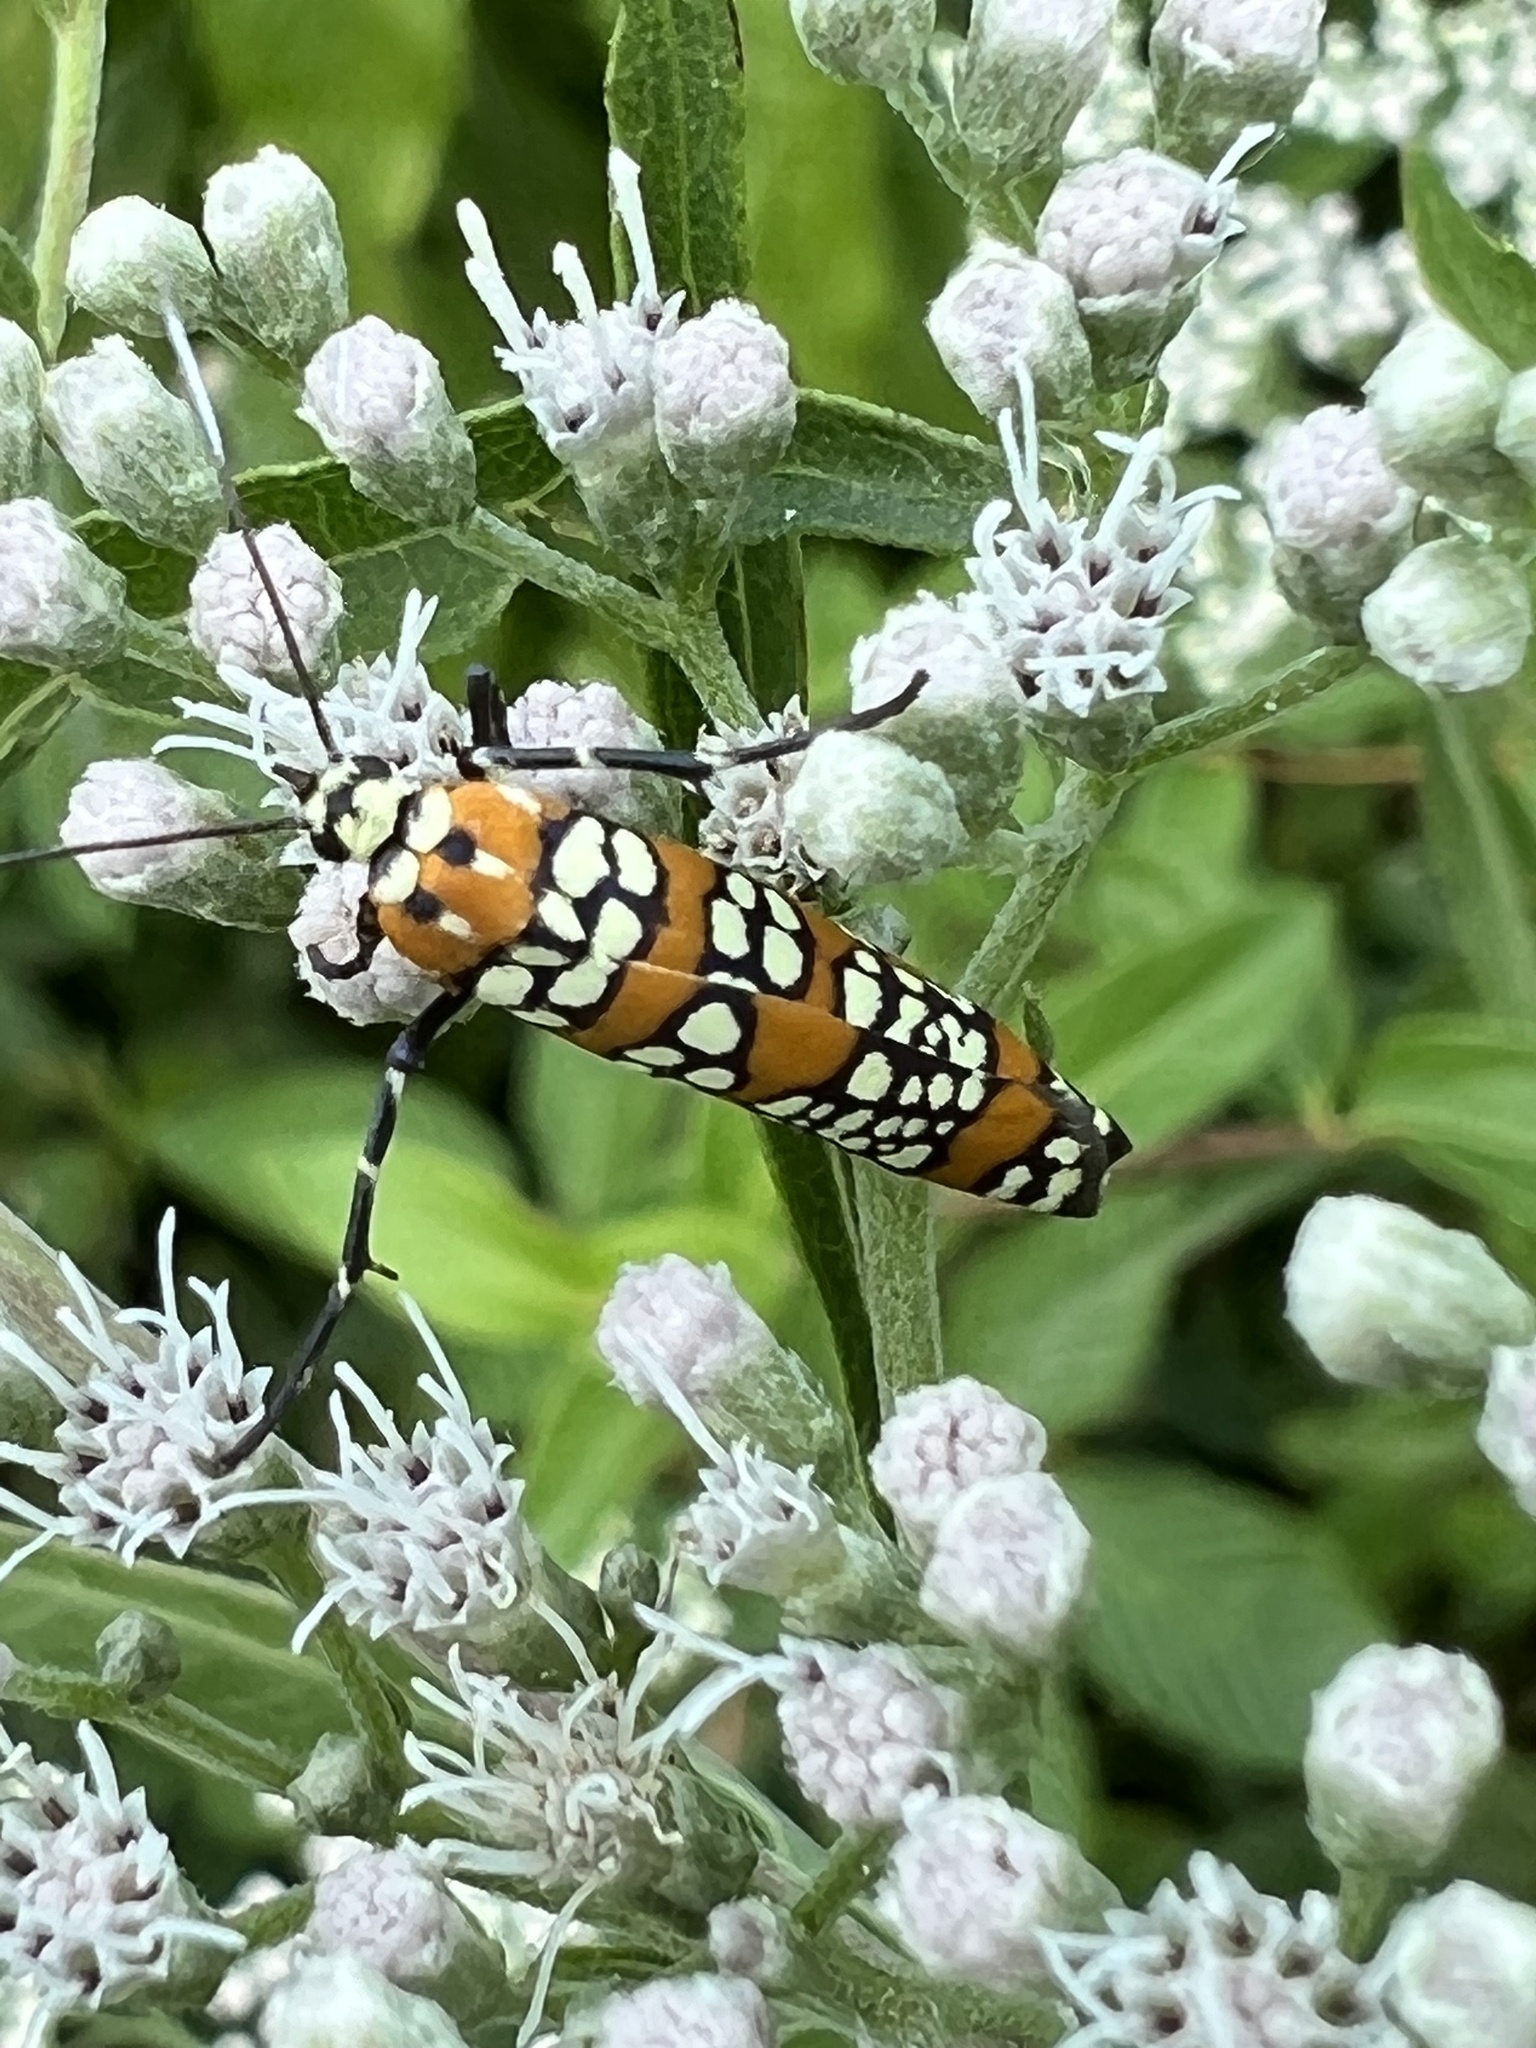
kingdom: Animalia
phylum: Arthropoda
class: Insecta
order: Lepidoptera
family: Attevidae
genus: Atteva
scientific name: Atteva punctella
